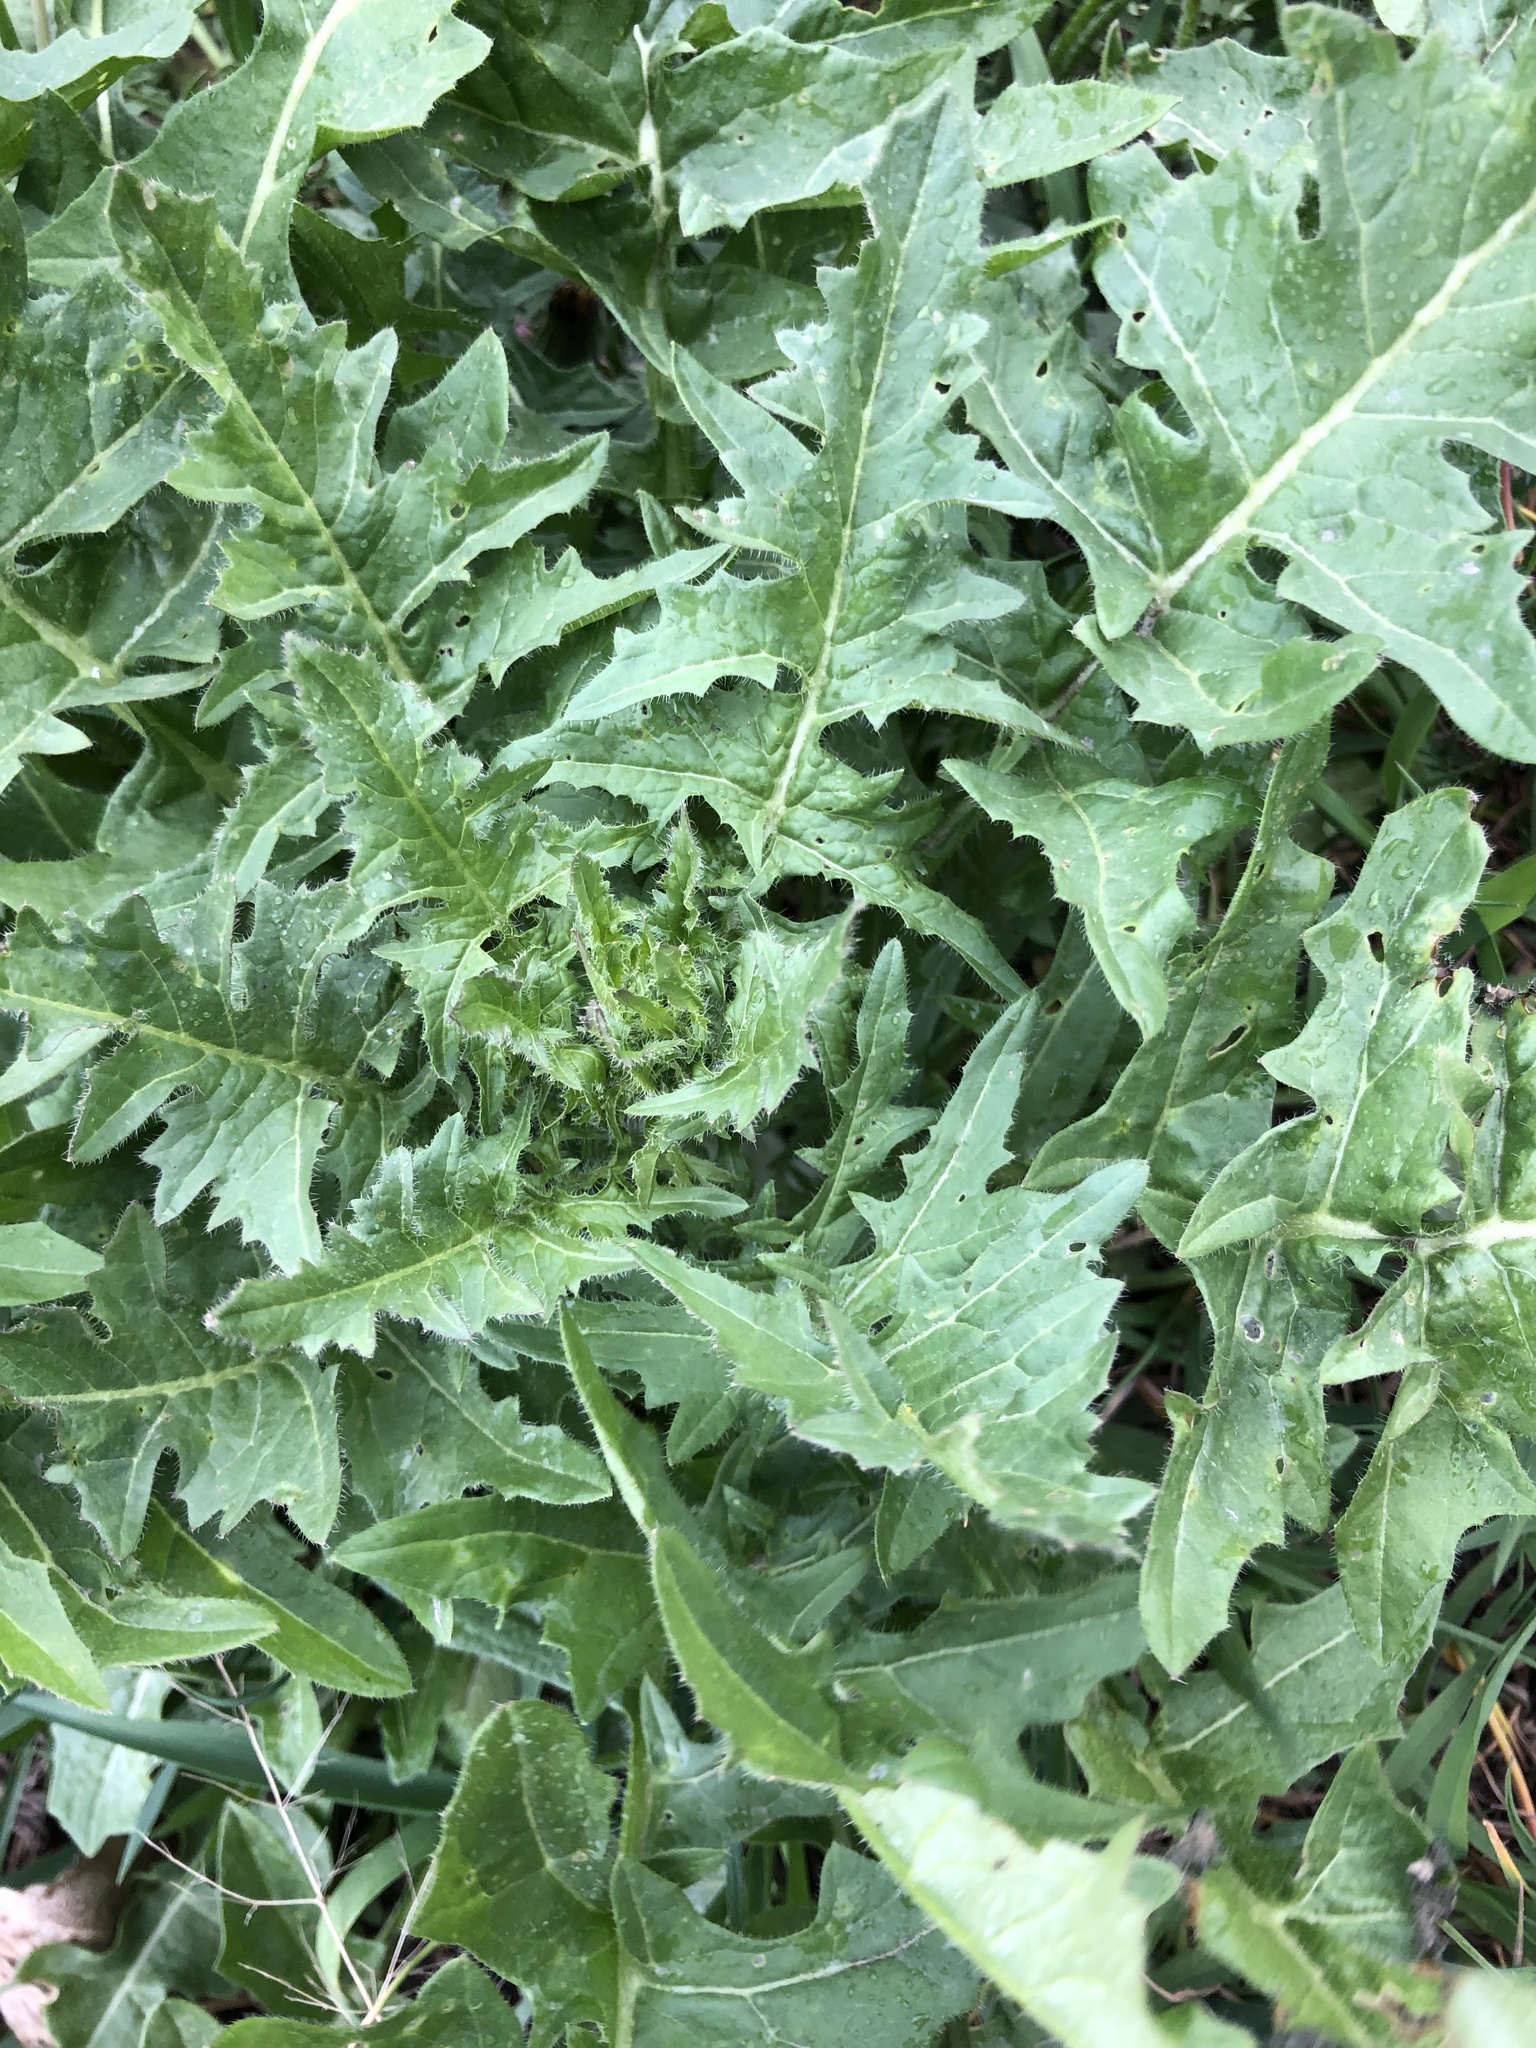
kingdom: Plantae
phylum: Tracheophyta
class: Magnoliopsida
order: Brassicales
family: Brassicaceae
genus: Sisymbrium
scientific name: Sisymbrium loeselii
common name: False london-rocket
